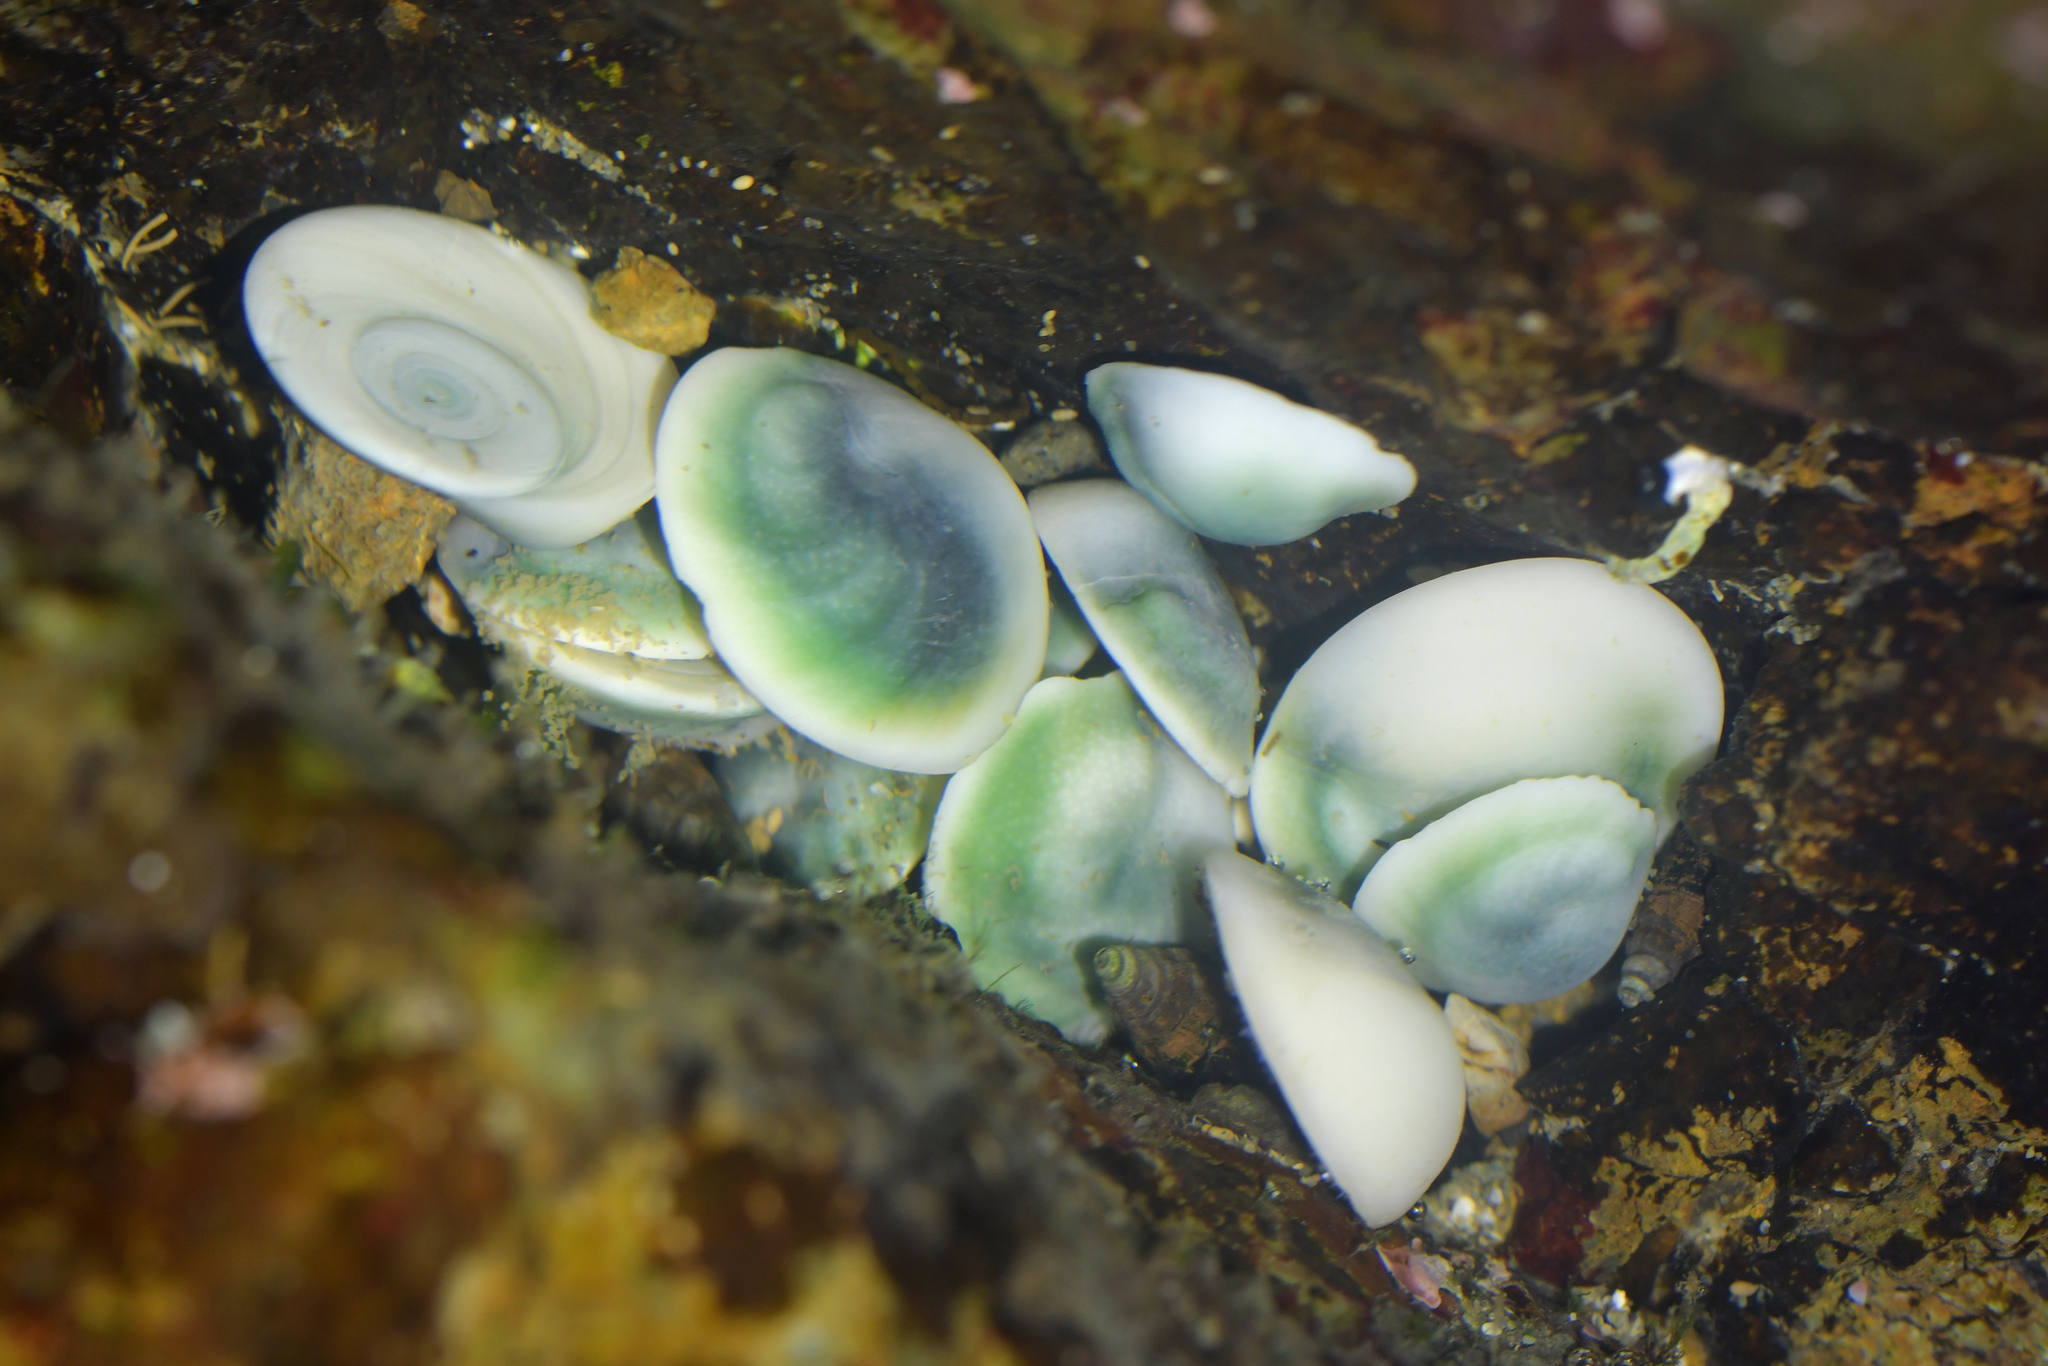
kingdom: Animalia
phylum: Mollusca
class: Gastropoda
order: Trochida
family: Turbinidae
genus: Lunella
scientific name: Lunella smaragda
